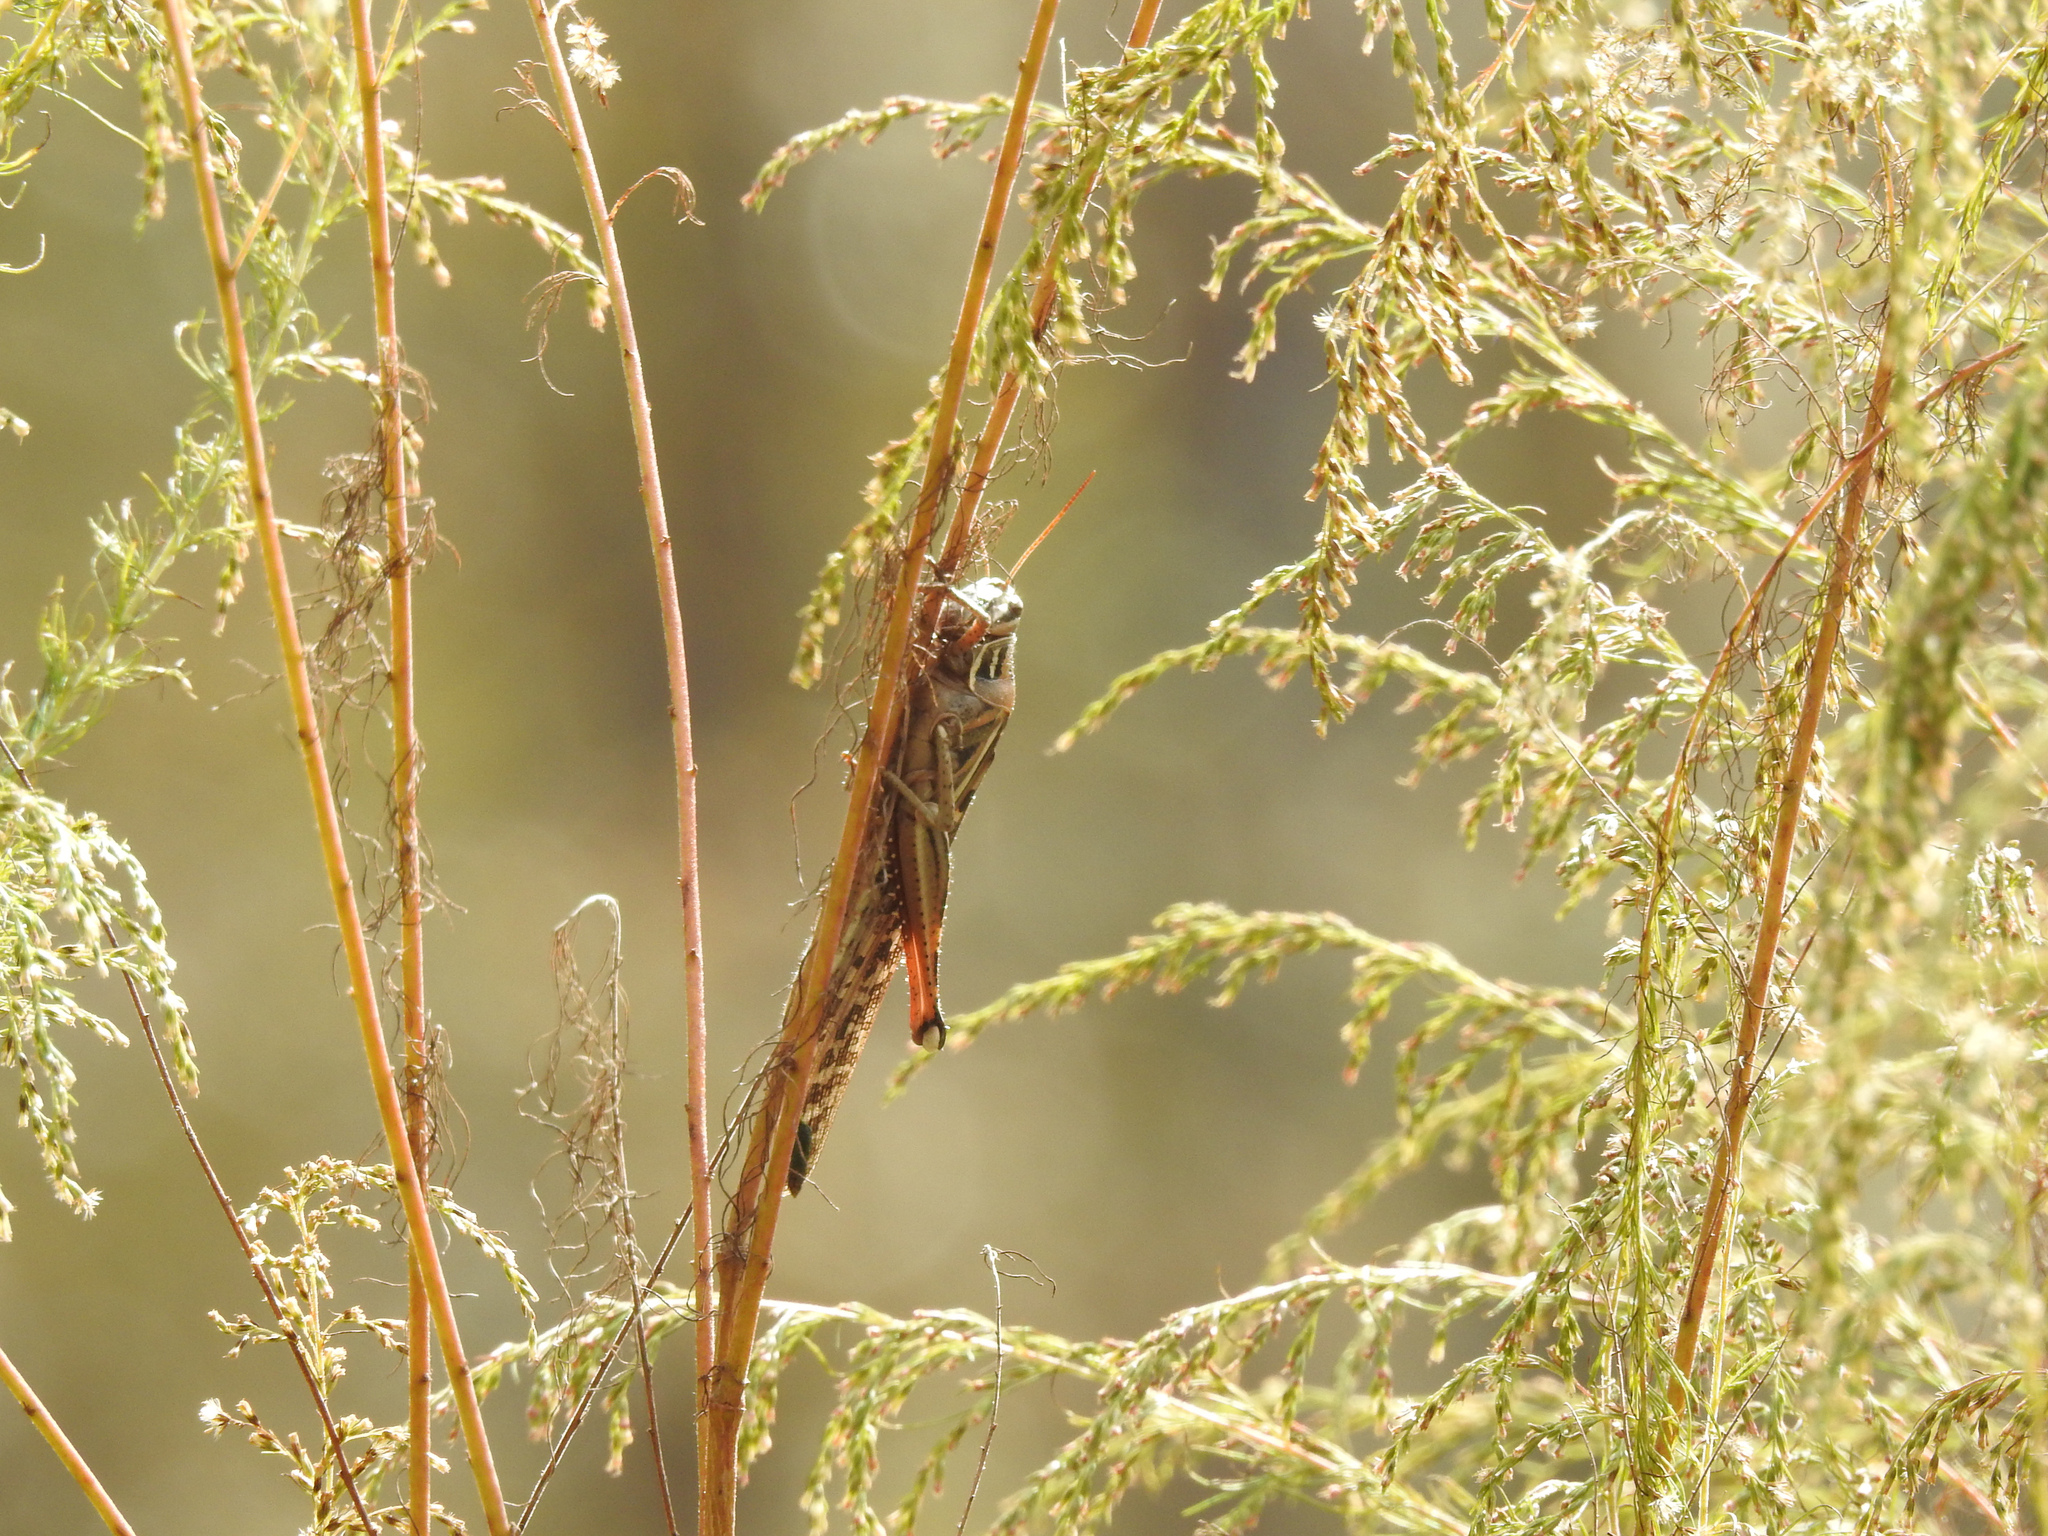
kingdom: Animalia
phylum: Arthropoda
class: Insecta
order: Orthoptera
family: Acrididae
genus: Schistocerca
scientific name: Schistocerca americana
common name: American bird locust
